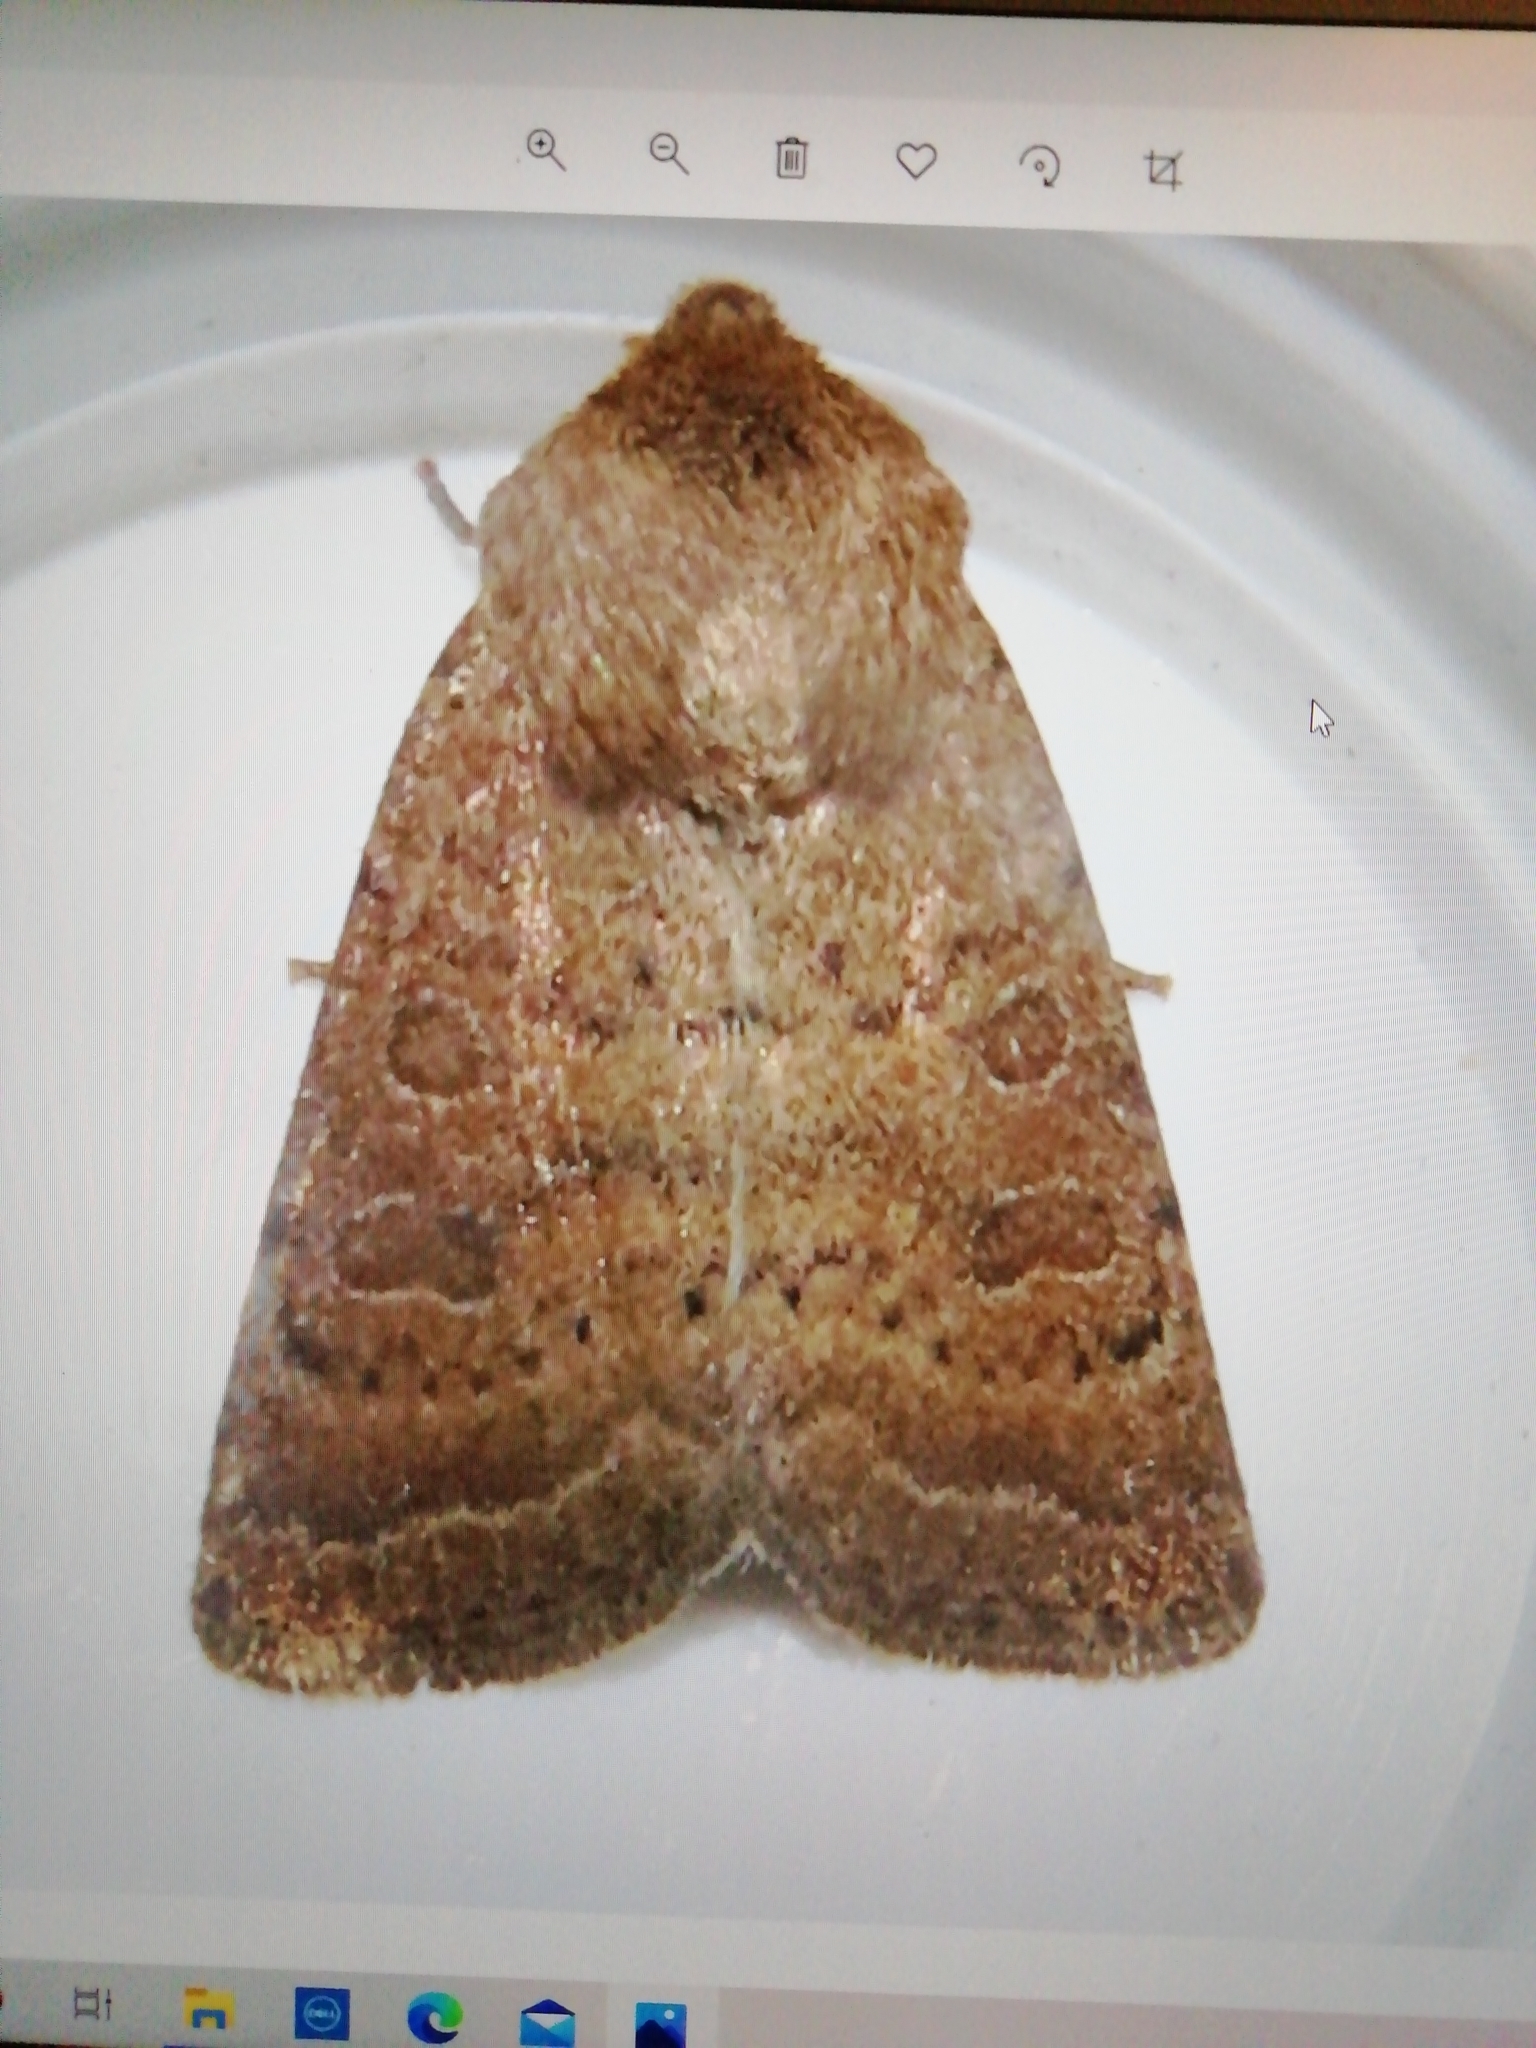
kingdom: Animalia
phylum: Arthropoda
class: Insecta
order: Lepidoptera
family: Noctuidae
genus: Hoplodrina
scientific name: Hoplodrina octogenaria
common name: Uncertain
